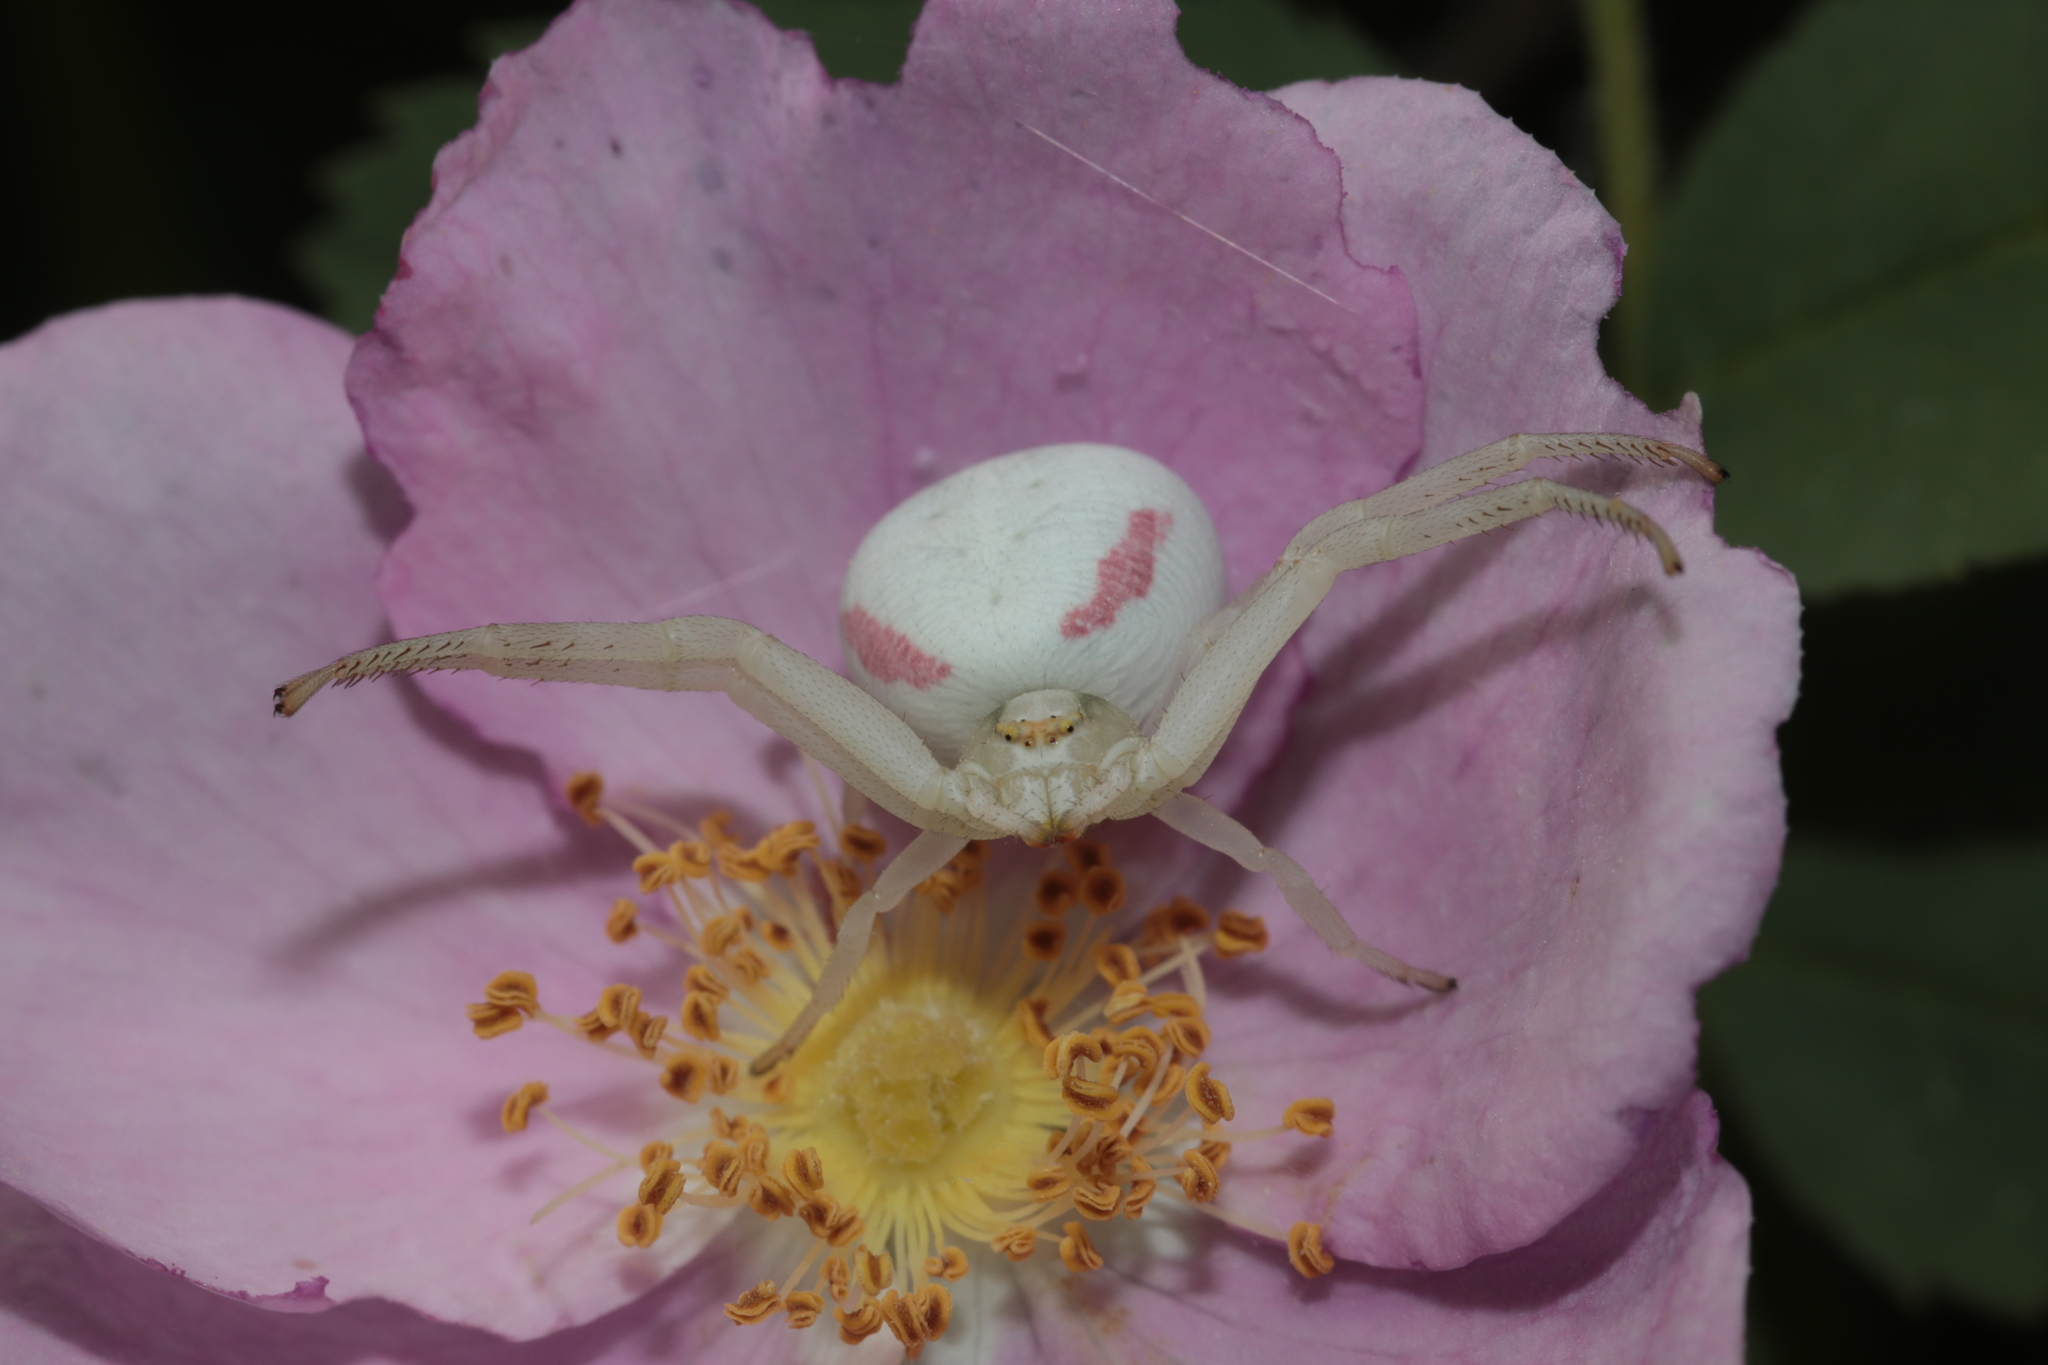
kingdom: Animalia
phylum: Arthropoda
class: Arachnida
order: Araneae
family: Thomisidae
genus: Misumena
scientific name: Misumena vatia
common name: Goldenrod crab spider
